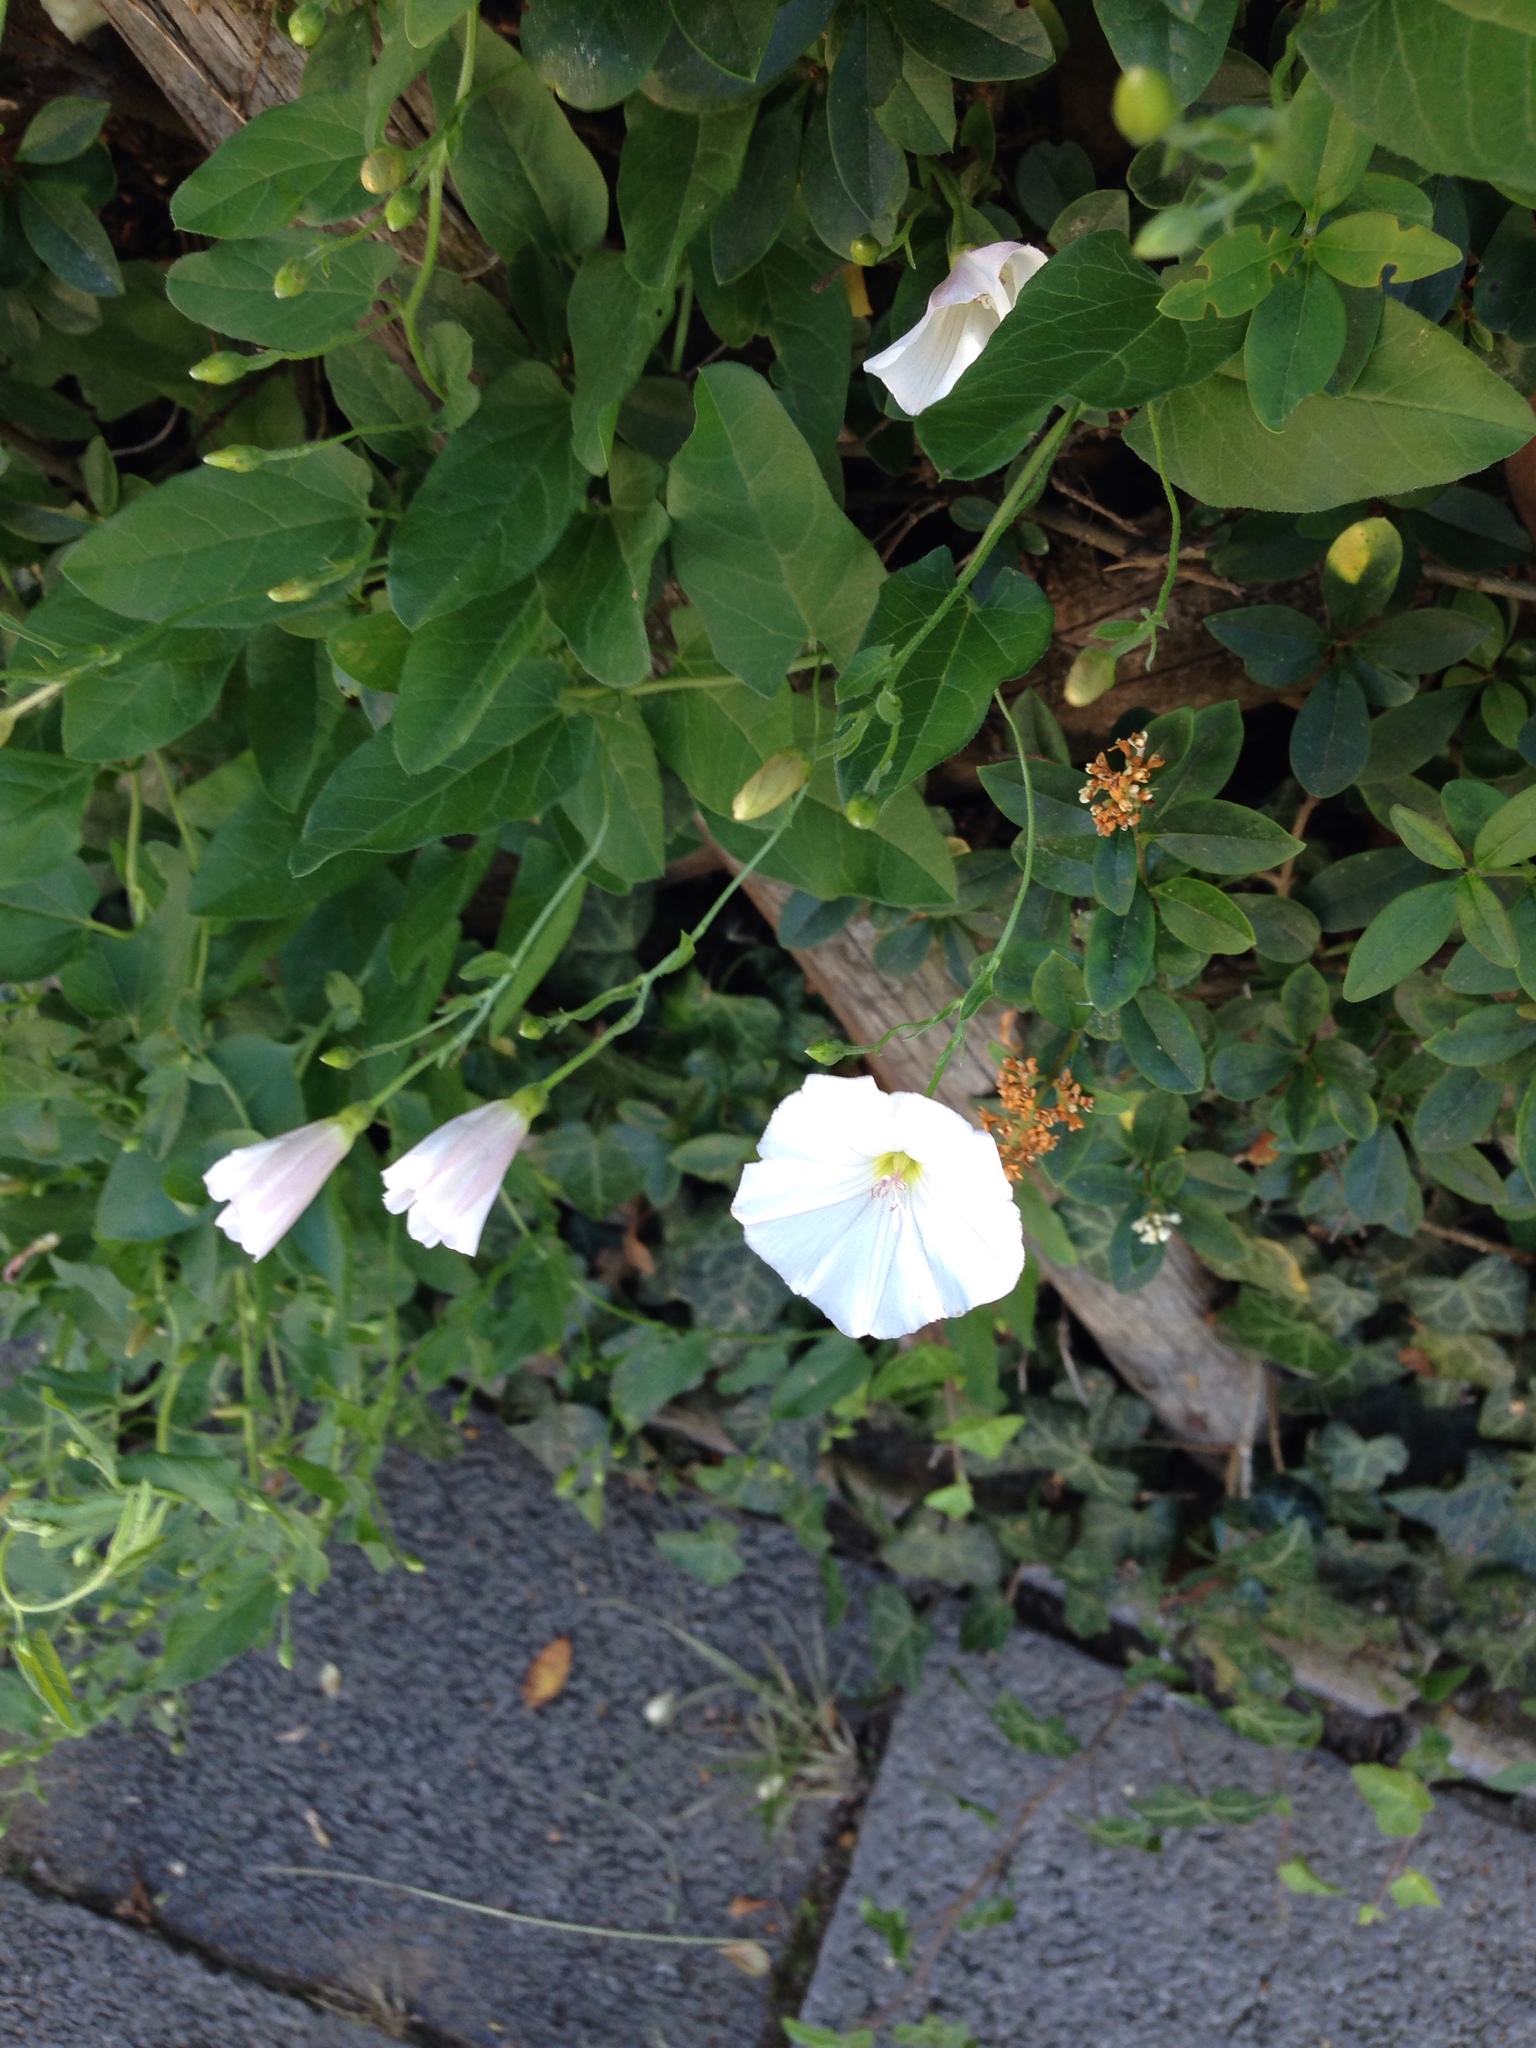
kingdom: Plantae
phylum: Tracheophyta
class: Magnoliopsida
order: Solanales
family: Convolvulaceae
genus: Convolvulus
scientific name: Convolvulus arvensis
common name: Field bindweed
